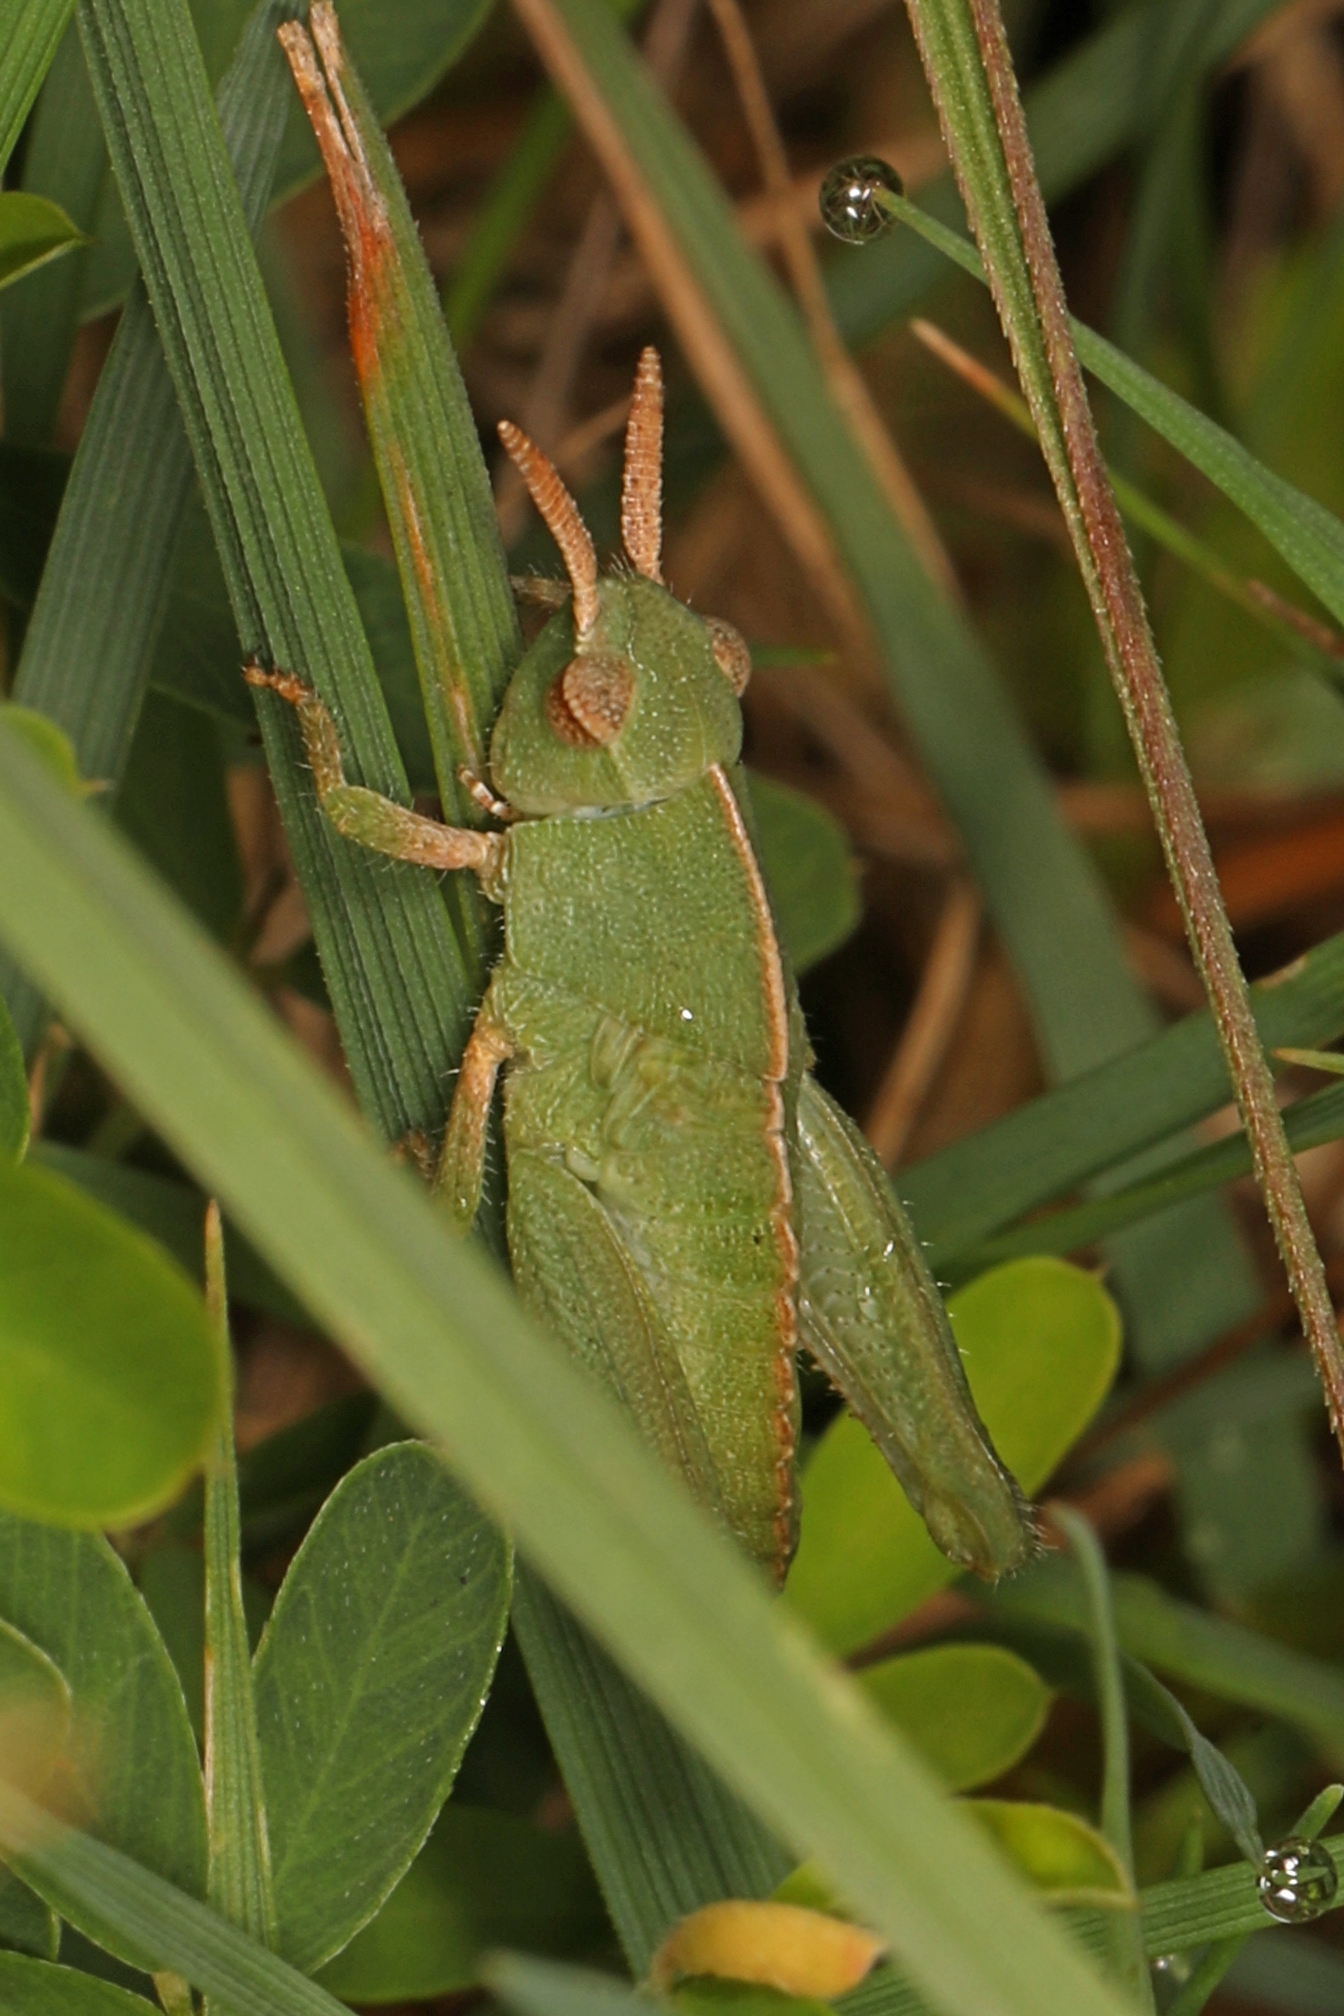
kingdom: Animalia
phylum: Arthropoda
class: Insecta
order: Orthoptera
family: Acrididae
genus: Chortophaga
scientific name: Chortophaga viridifasciata
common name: Green-striped grasshopper
